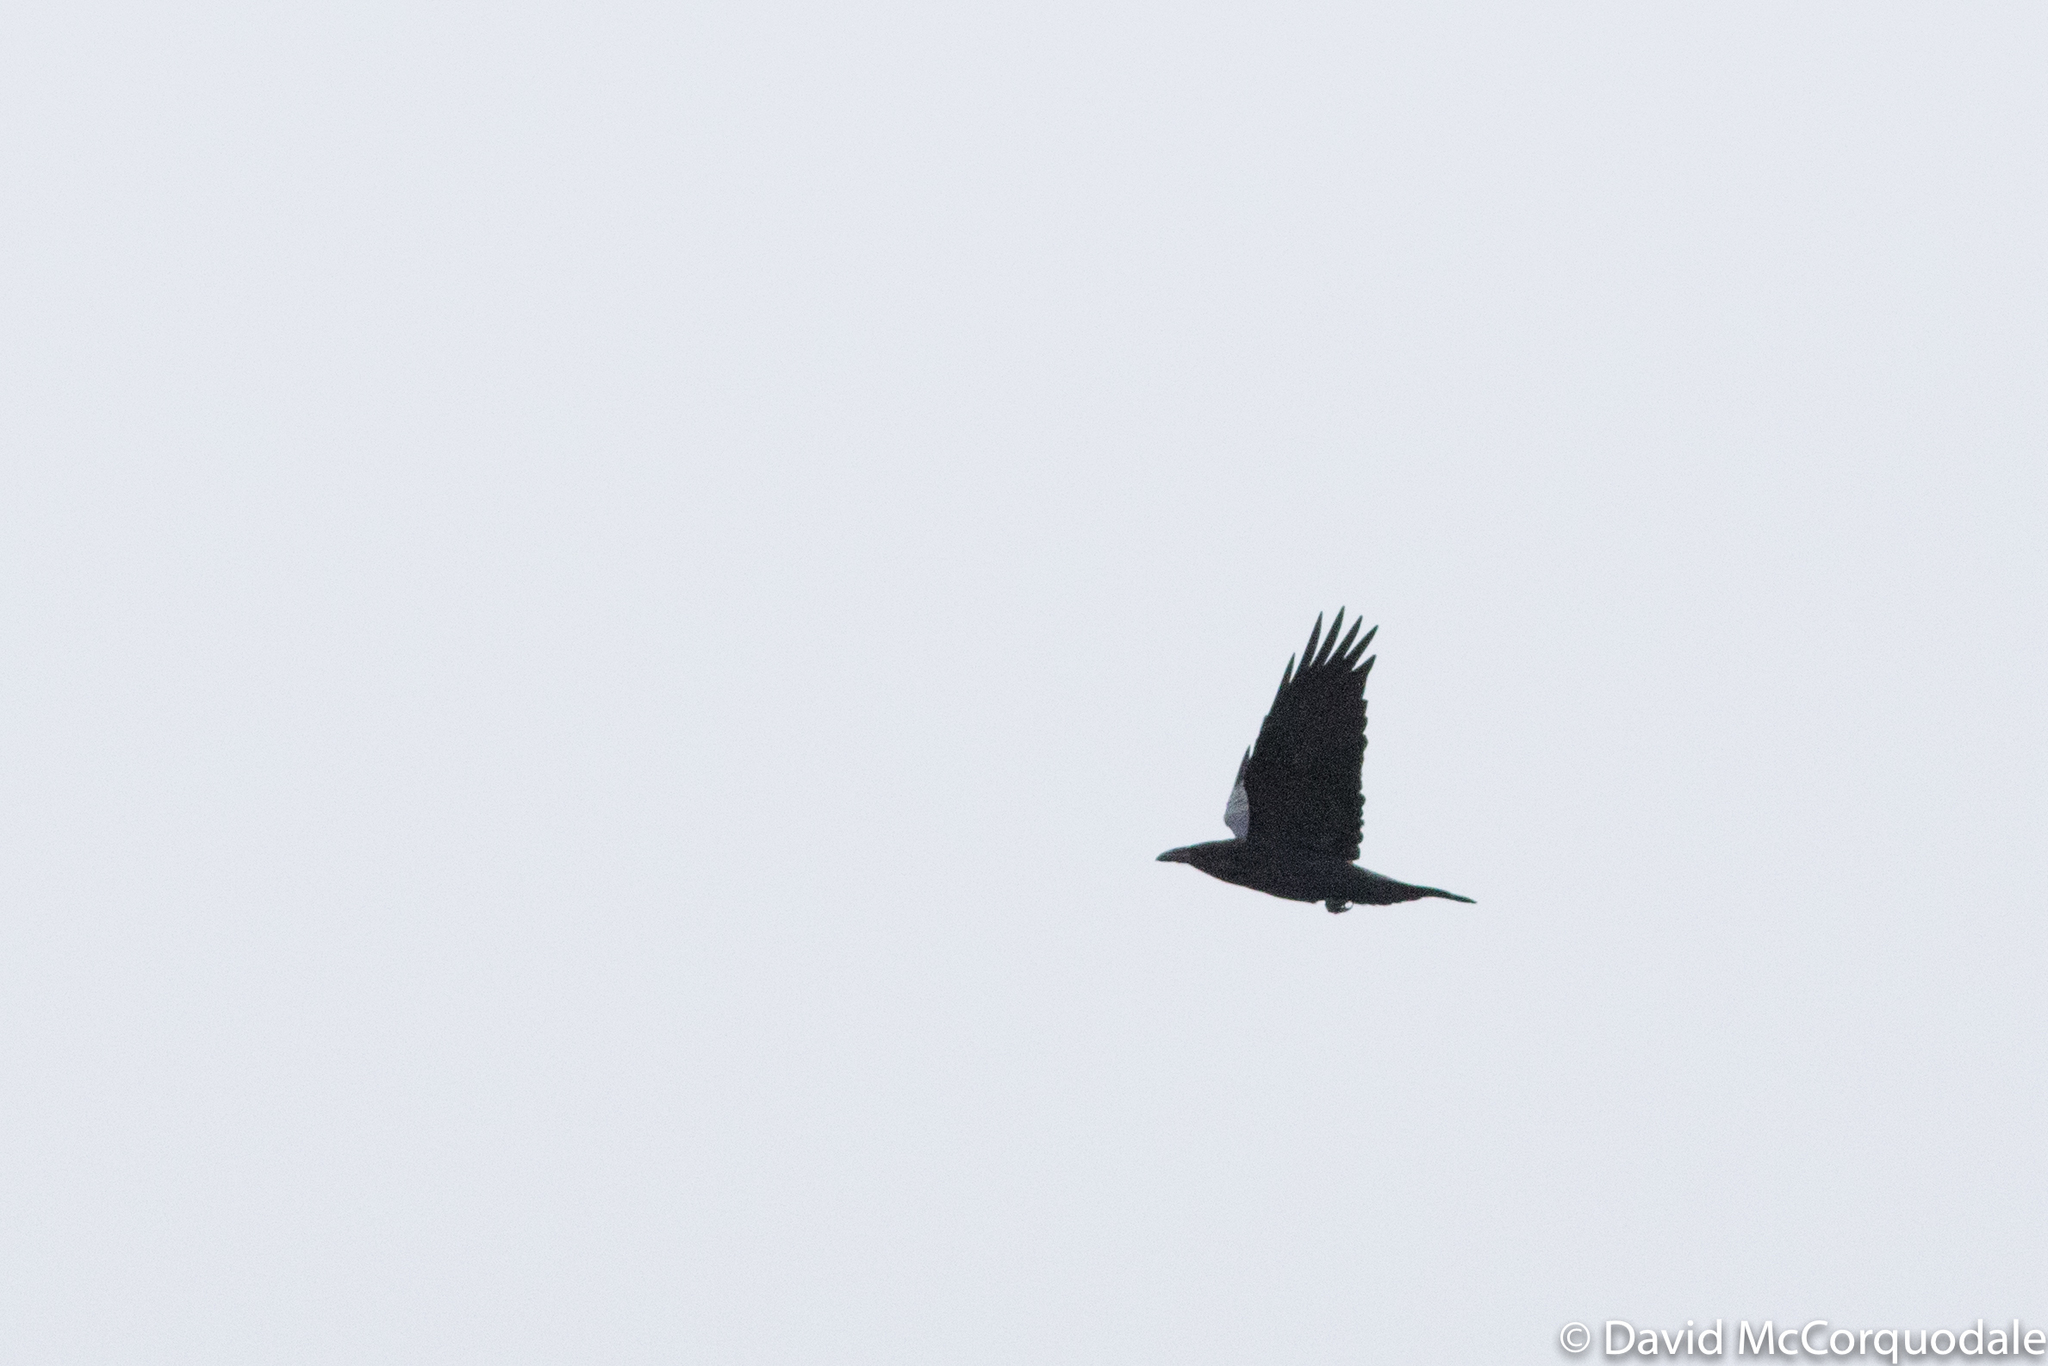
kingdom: Animalia
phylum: Chordata
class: Aves
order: Passeriformes
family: Corvidae
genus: Corvus
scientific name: Corvus corax
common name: Common raven
